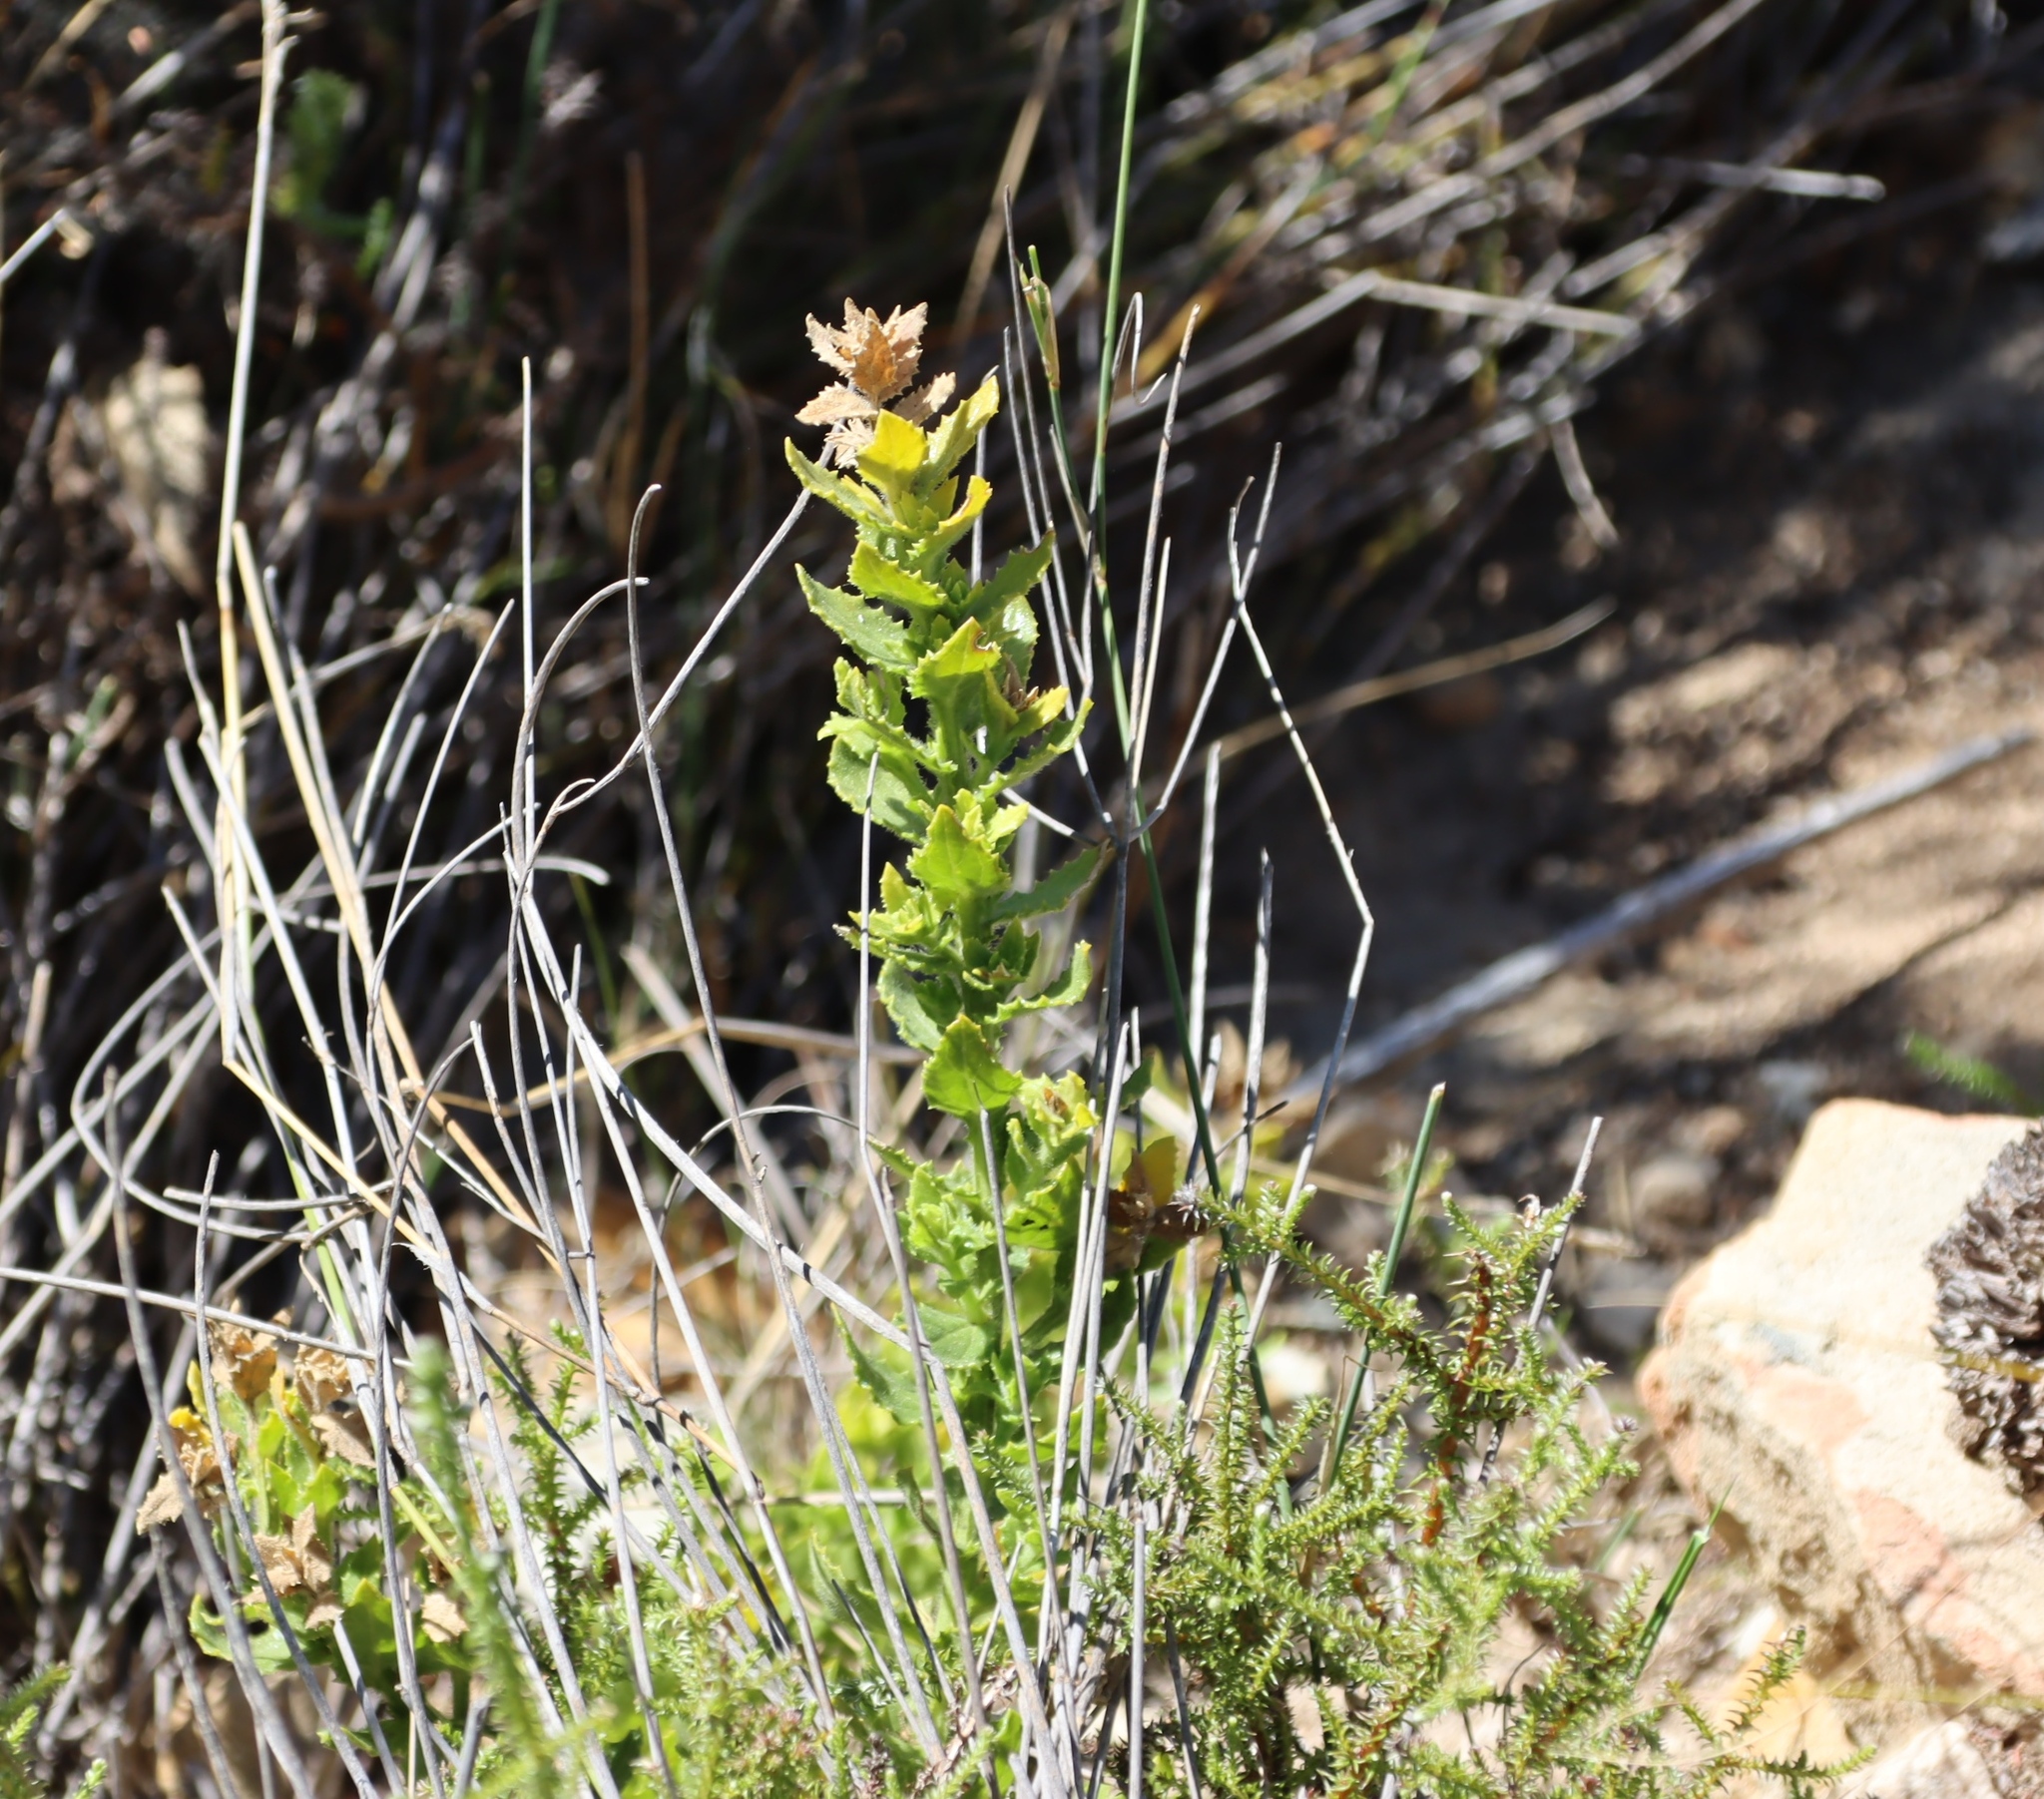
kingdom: Plantae
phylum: Tracheophyta
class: Magnoliopsida
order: Lamiales
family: Scrophulariaceae
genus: Oftia
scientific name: Oftia africana
